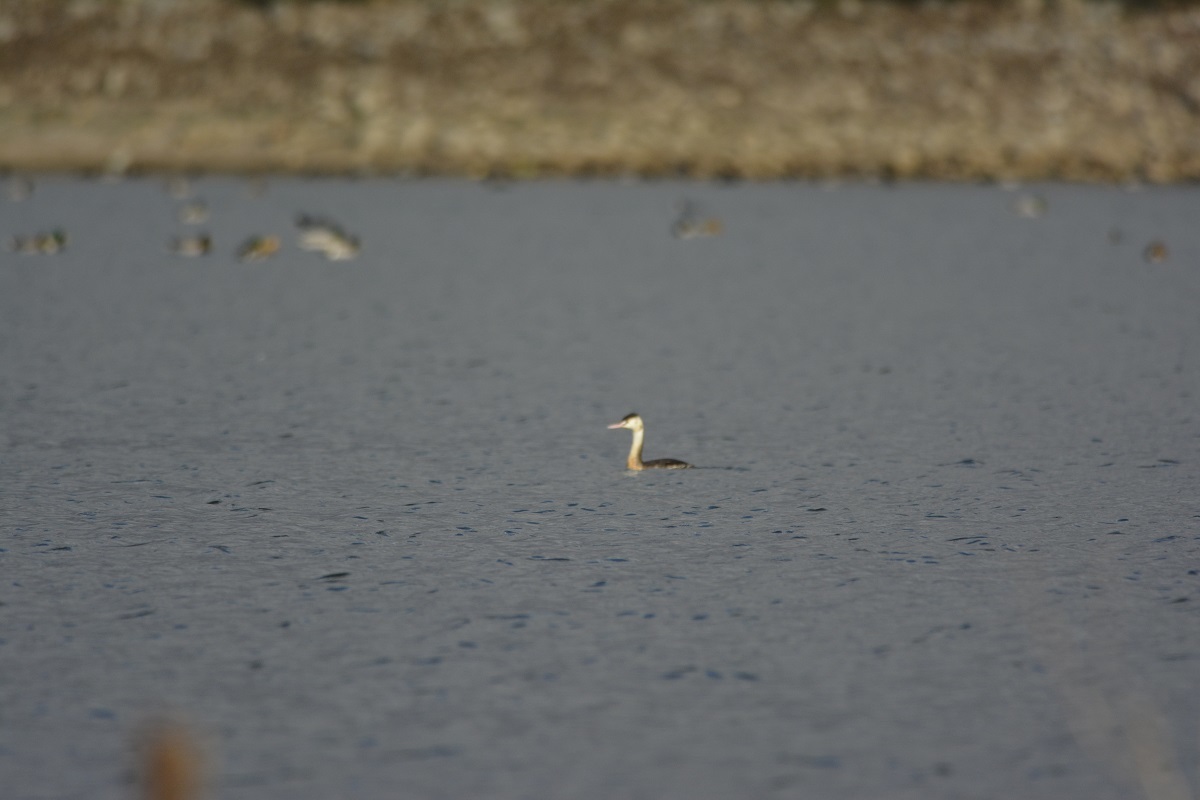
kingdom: Animalia
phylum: Chordata
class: Aves
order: Podicipediformes
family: Podicipedidae
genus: Podiceps
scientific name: Podiceps cristatus
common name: Great crested grebe
